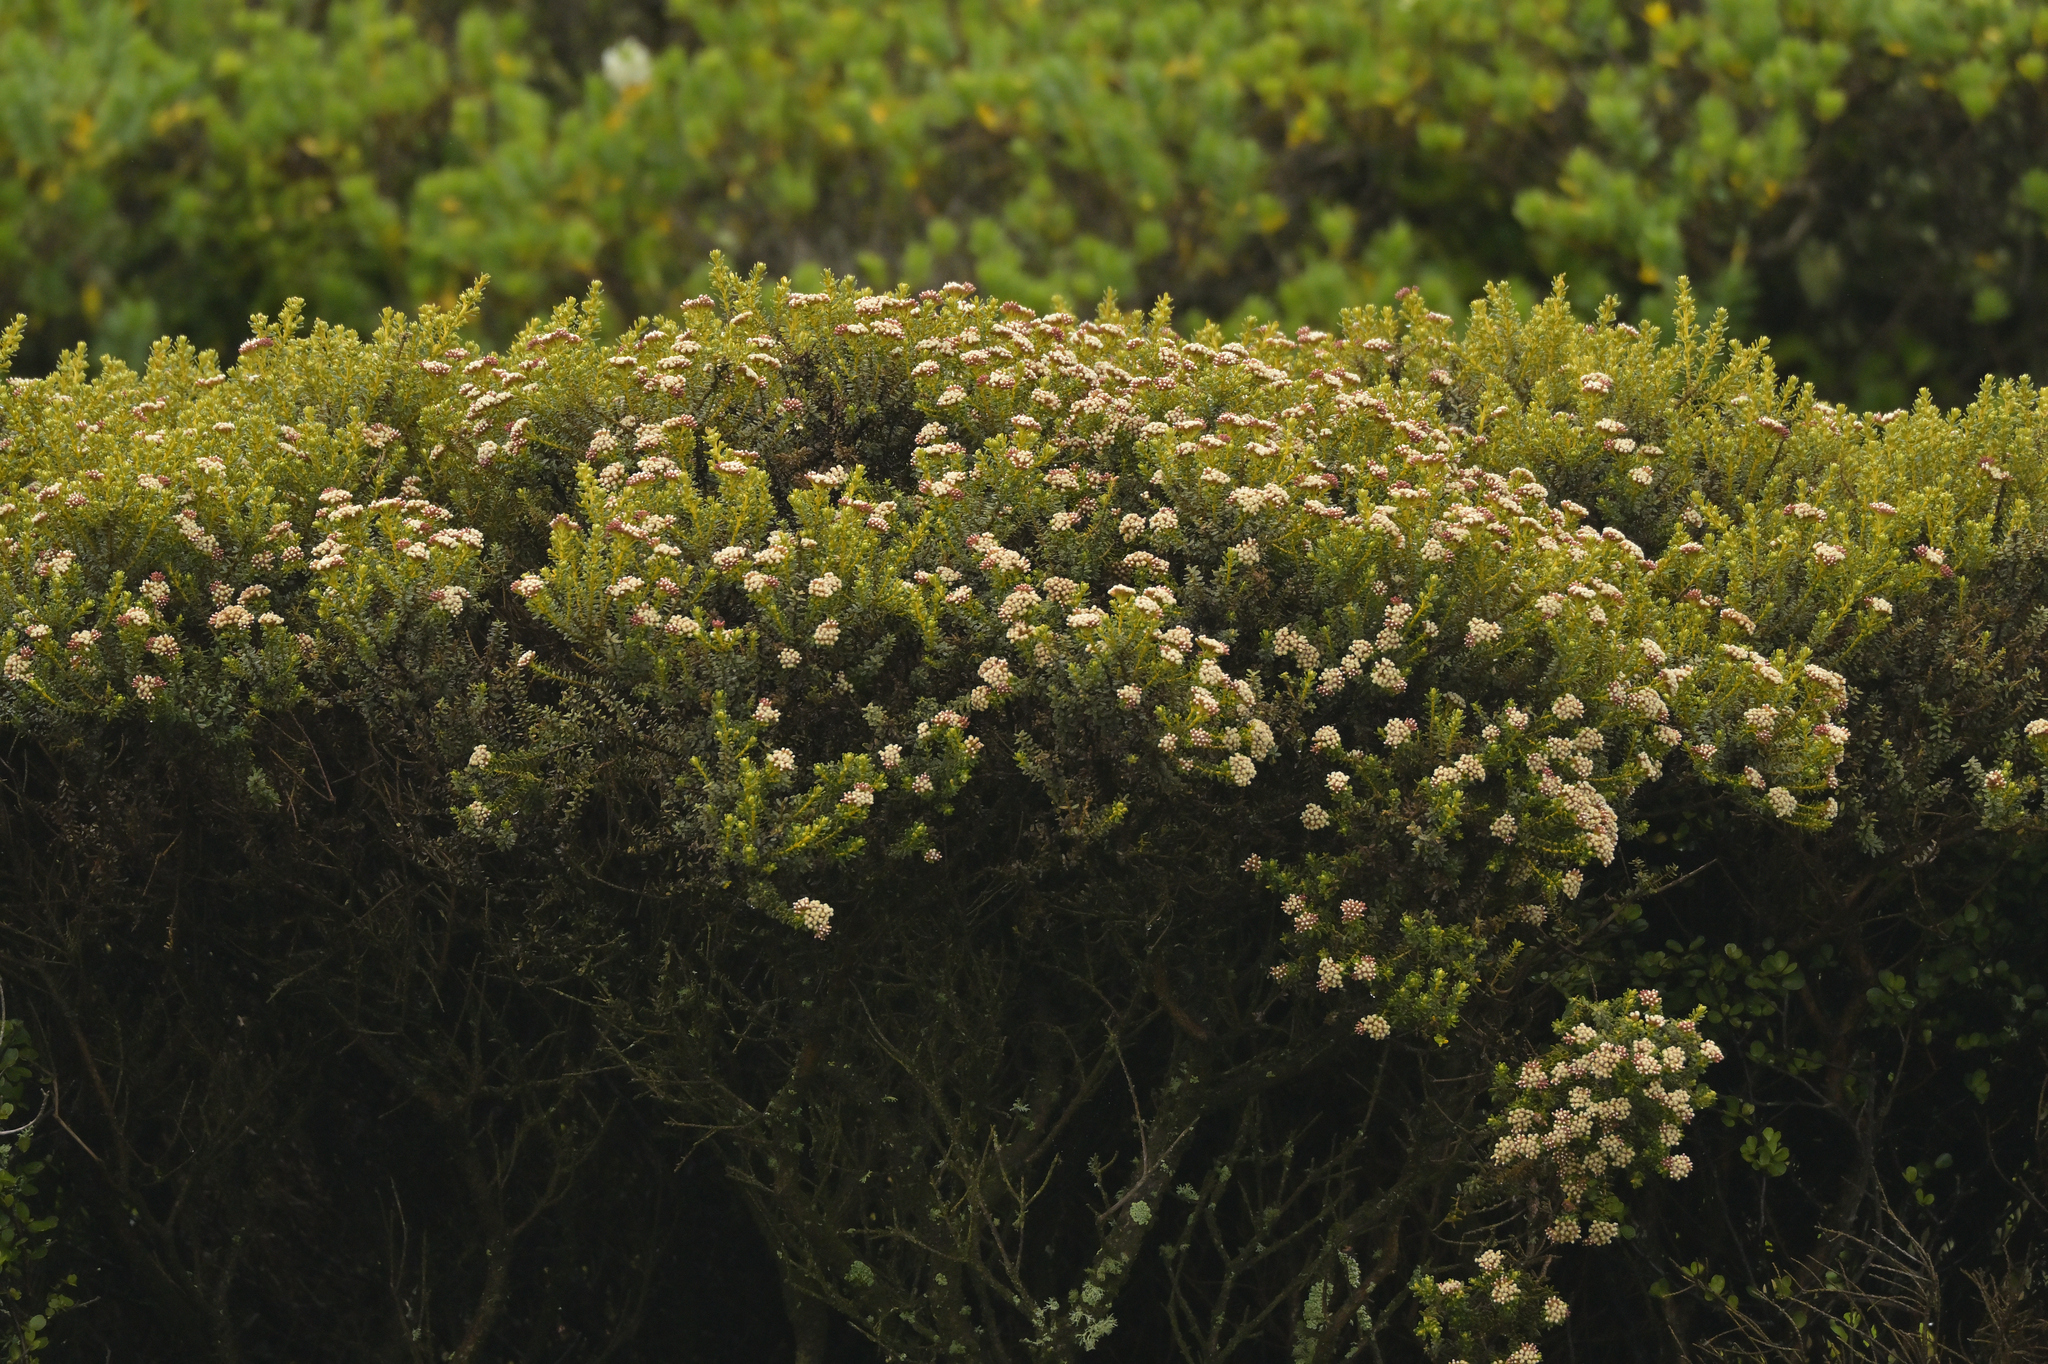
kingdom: Plantae
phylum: Tracheophyta
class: Magnoliopsida
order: Asterales
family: Asteraceae
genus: Ozothamnus
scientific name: Ozothamnus leptophyllus
